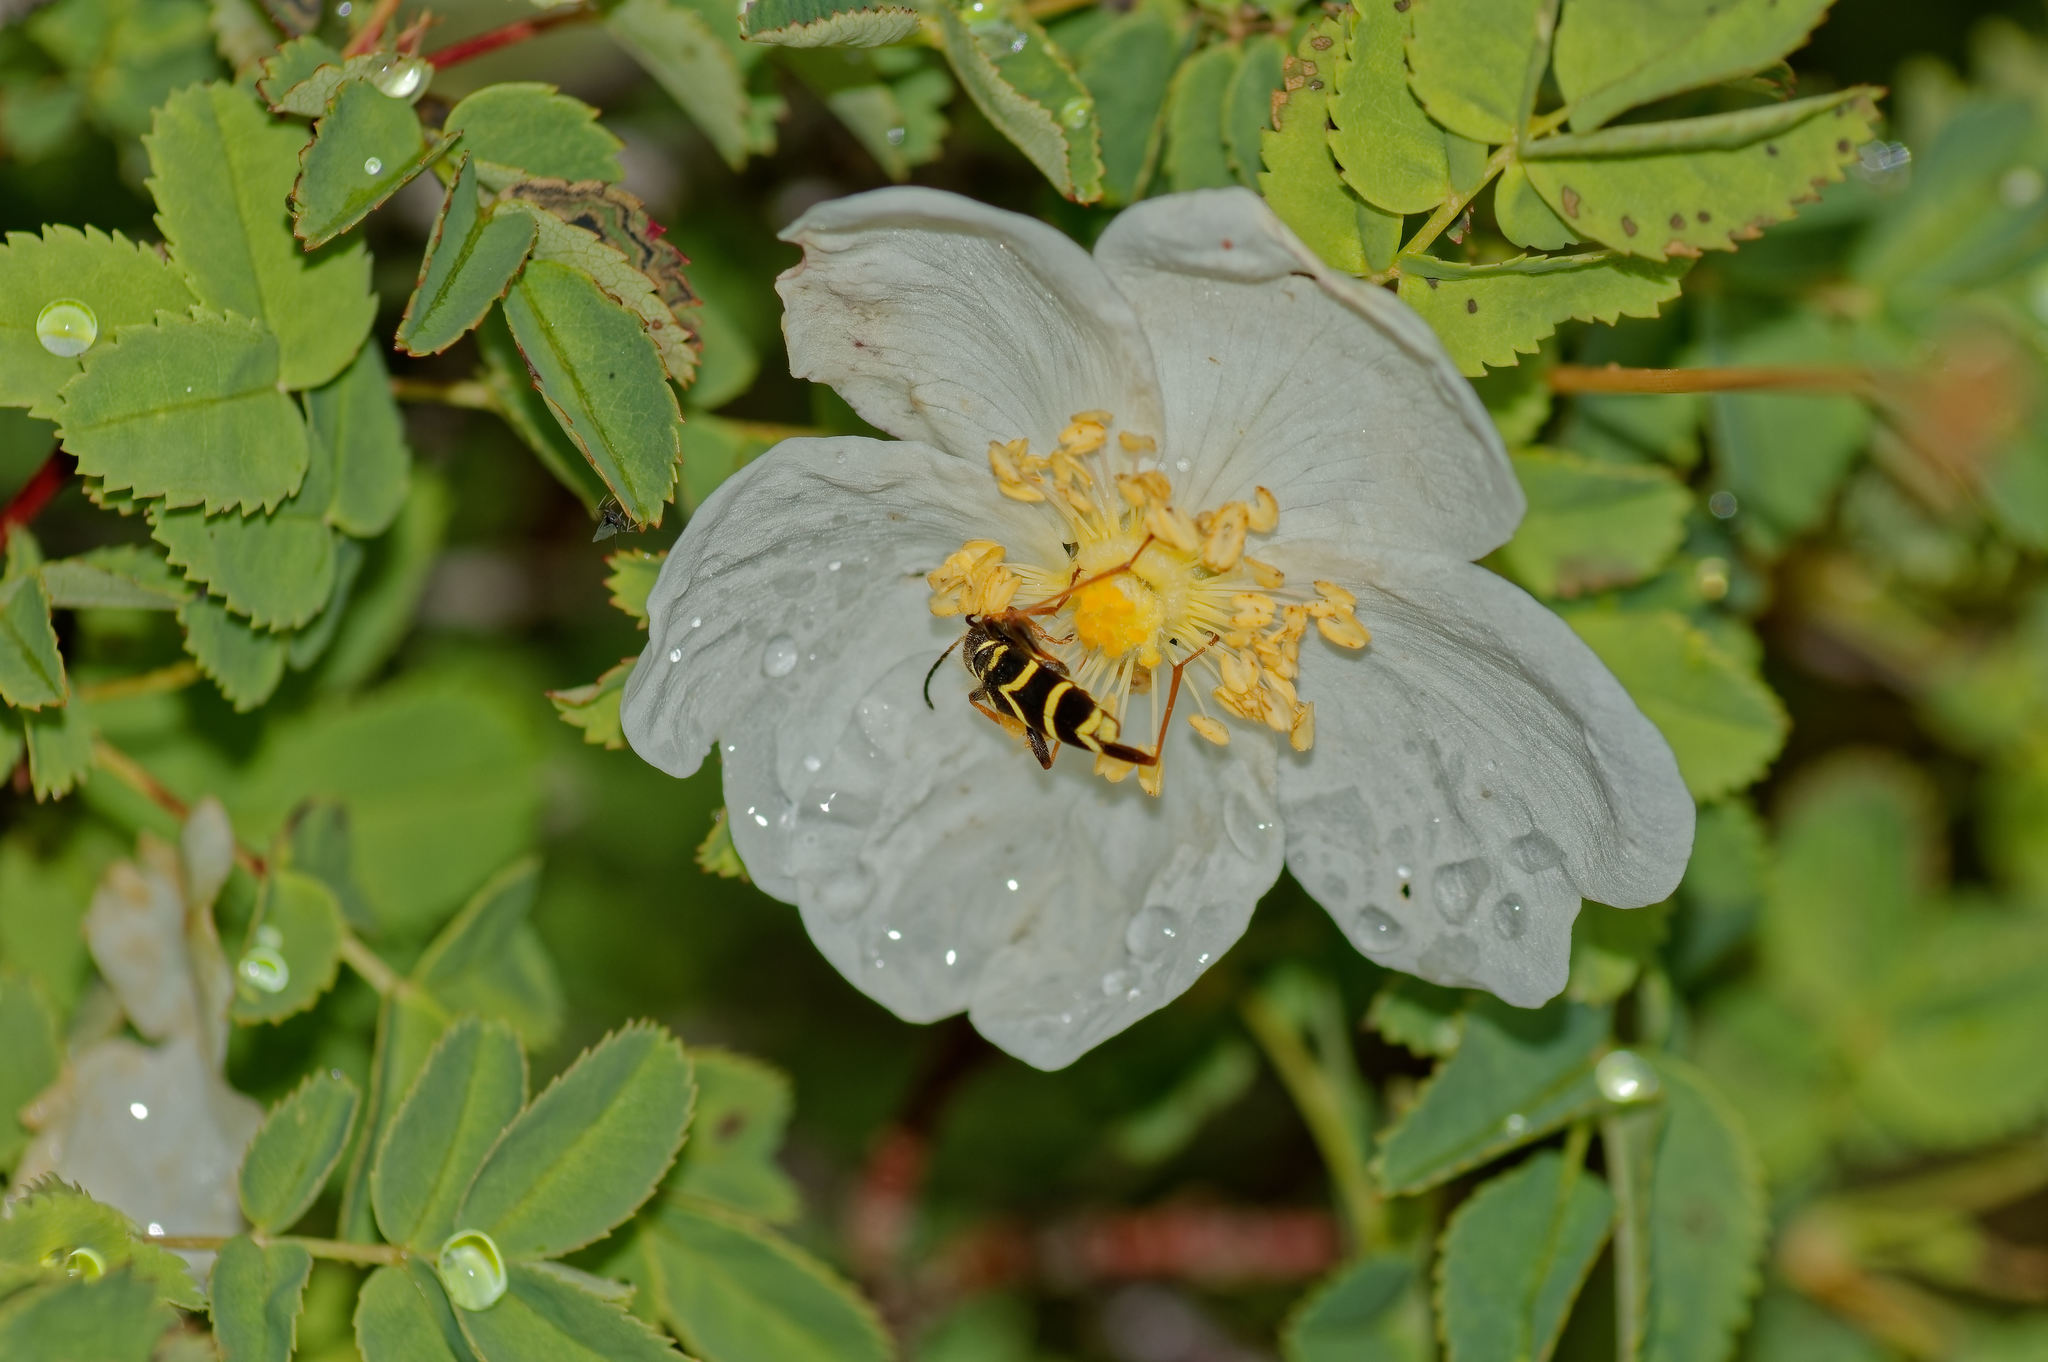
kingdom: Animalia
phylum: Arthropoda
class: Insecta
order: Coleoptera
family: Cerambycidae
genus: Clytus
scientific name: Clytus arietis
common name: Wasp beetle
